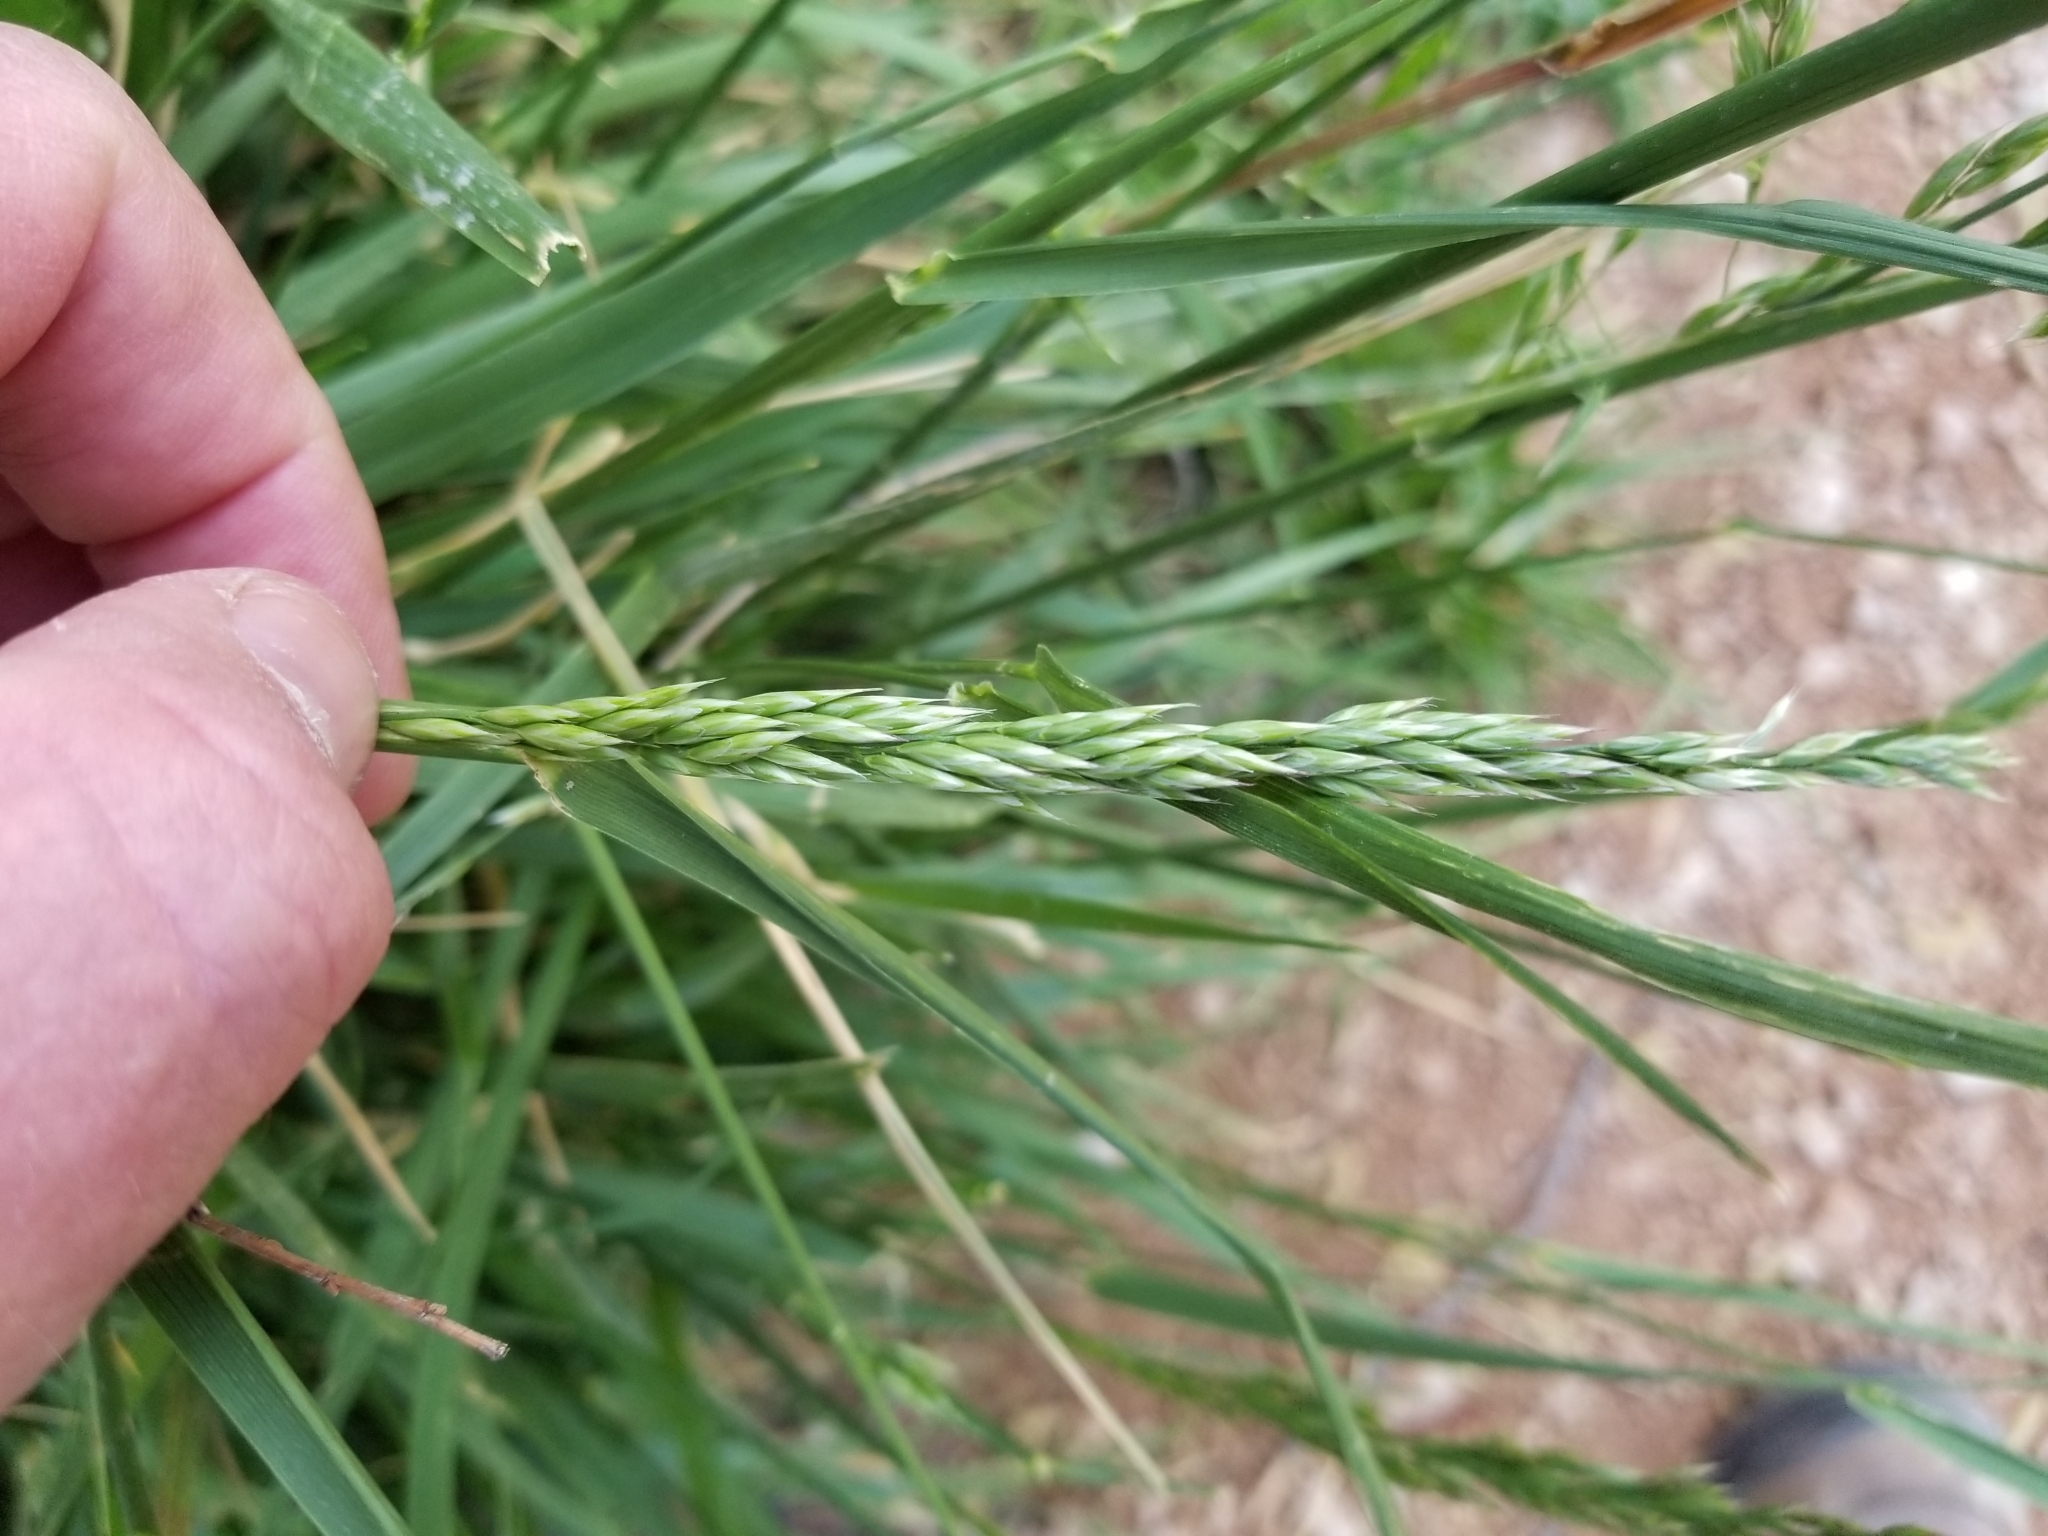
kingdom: Plantae
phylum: Tracheophyta
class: Liliopsida
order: Poales
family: Poaceae
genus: Lolium
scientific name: Lolium arundinaceum
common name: Reed fescue
